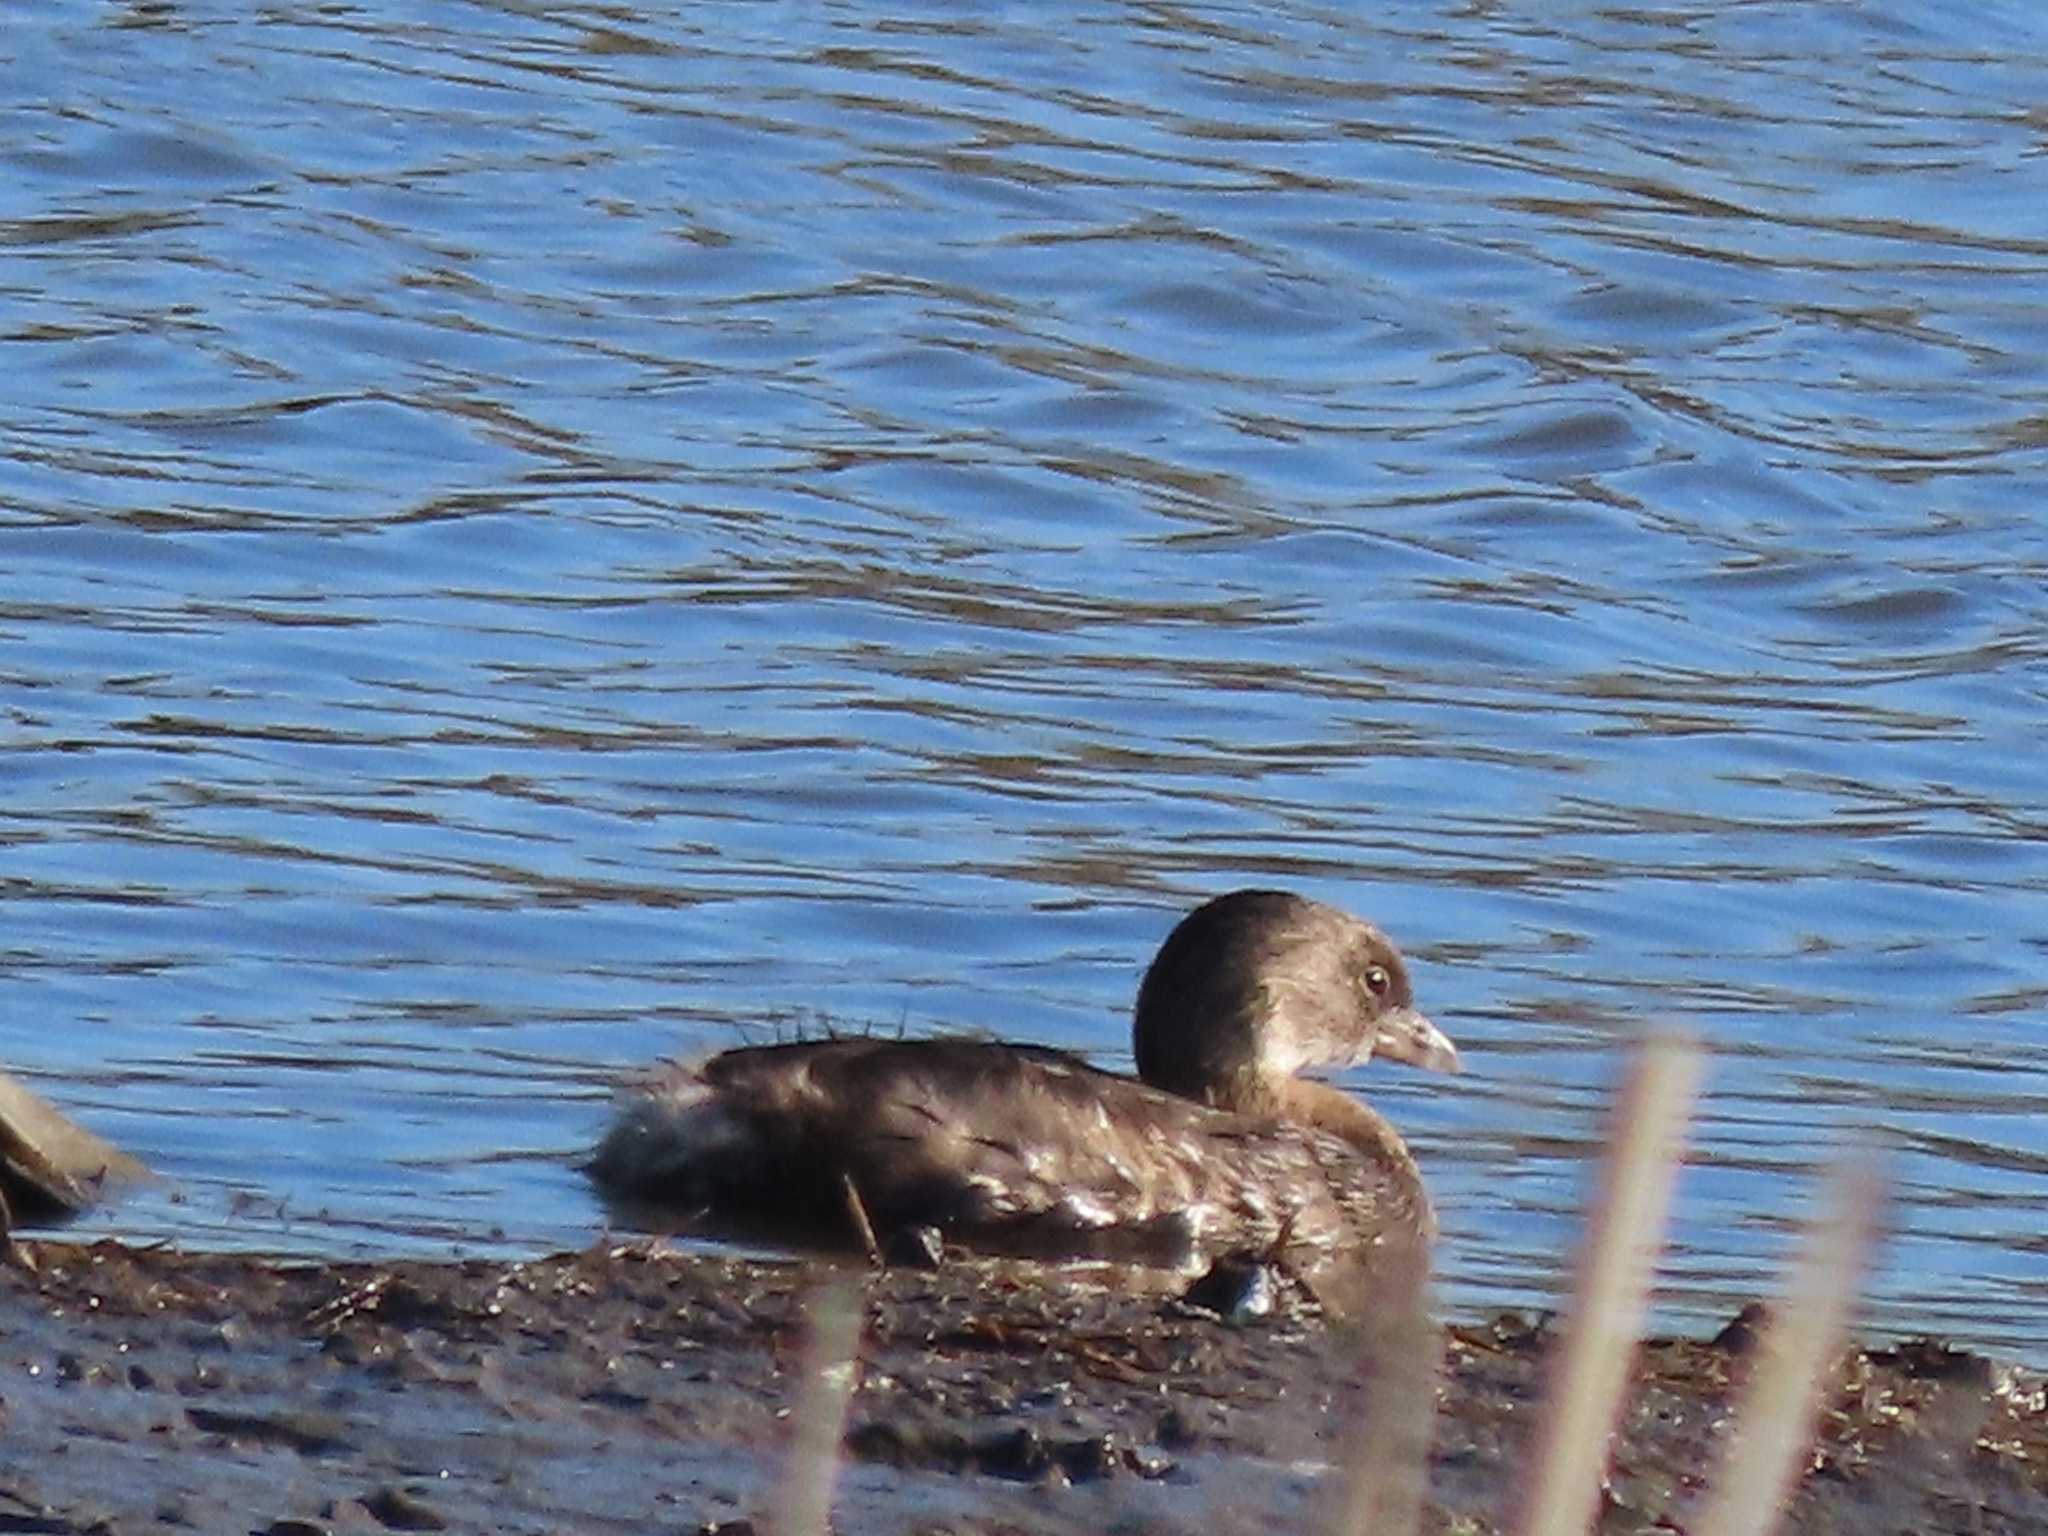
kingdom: Animalia
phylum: Chordata
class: Aves
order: Podicipediformes
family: Podicipedidae
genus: Podilymbus
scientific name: Podilymbus podiceps
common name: Pied-billed grebe
